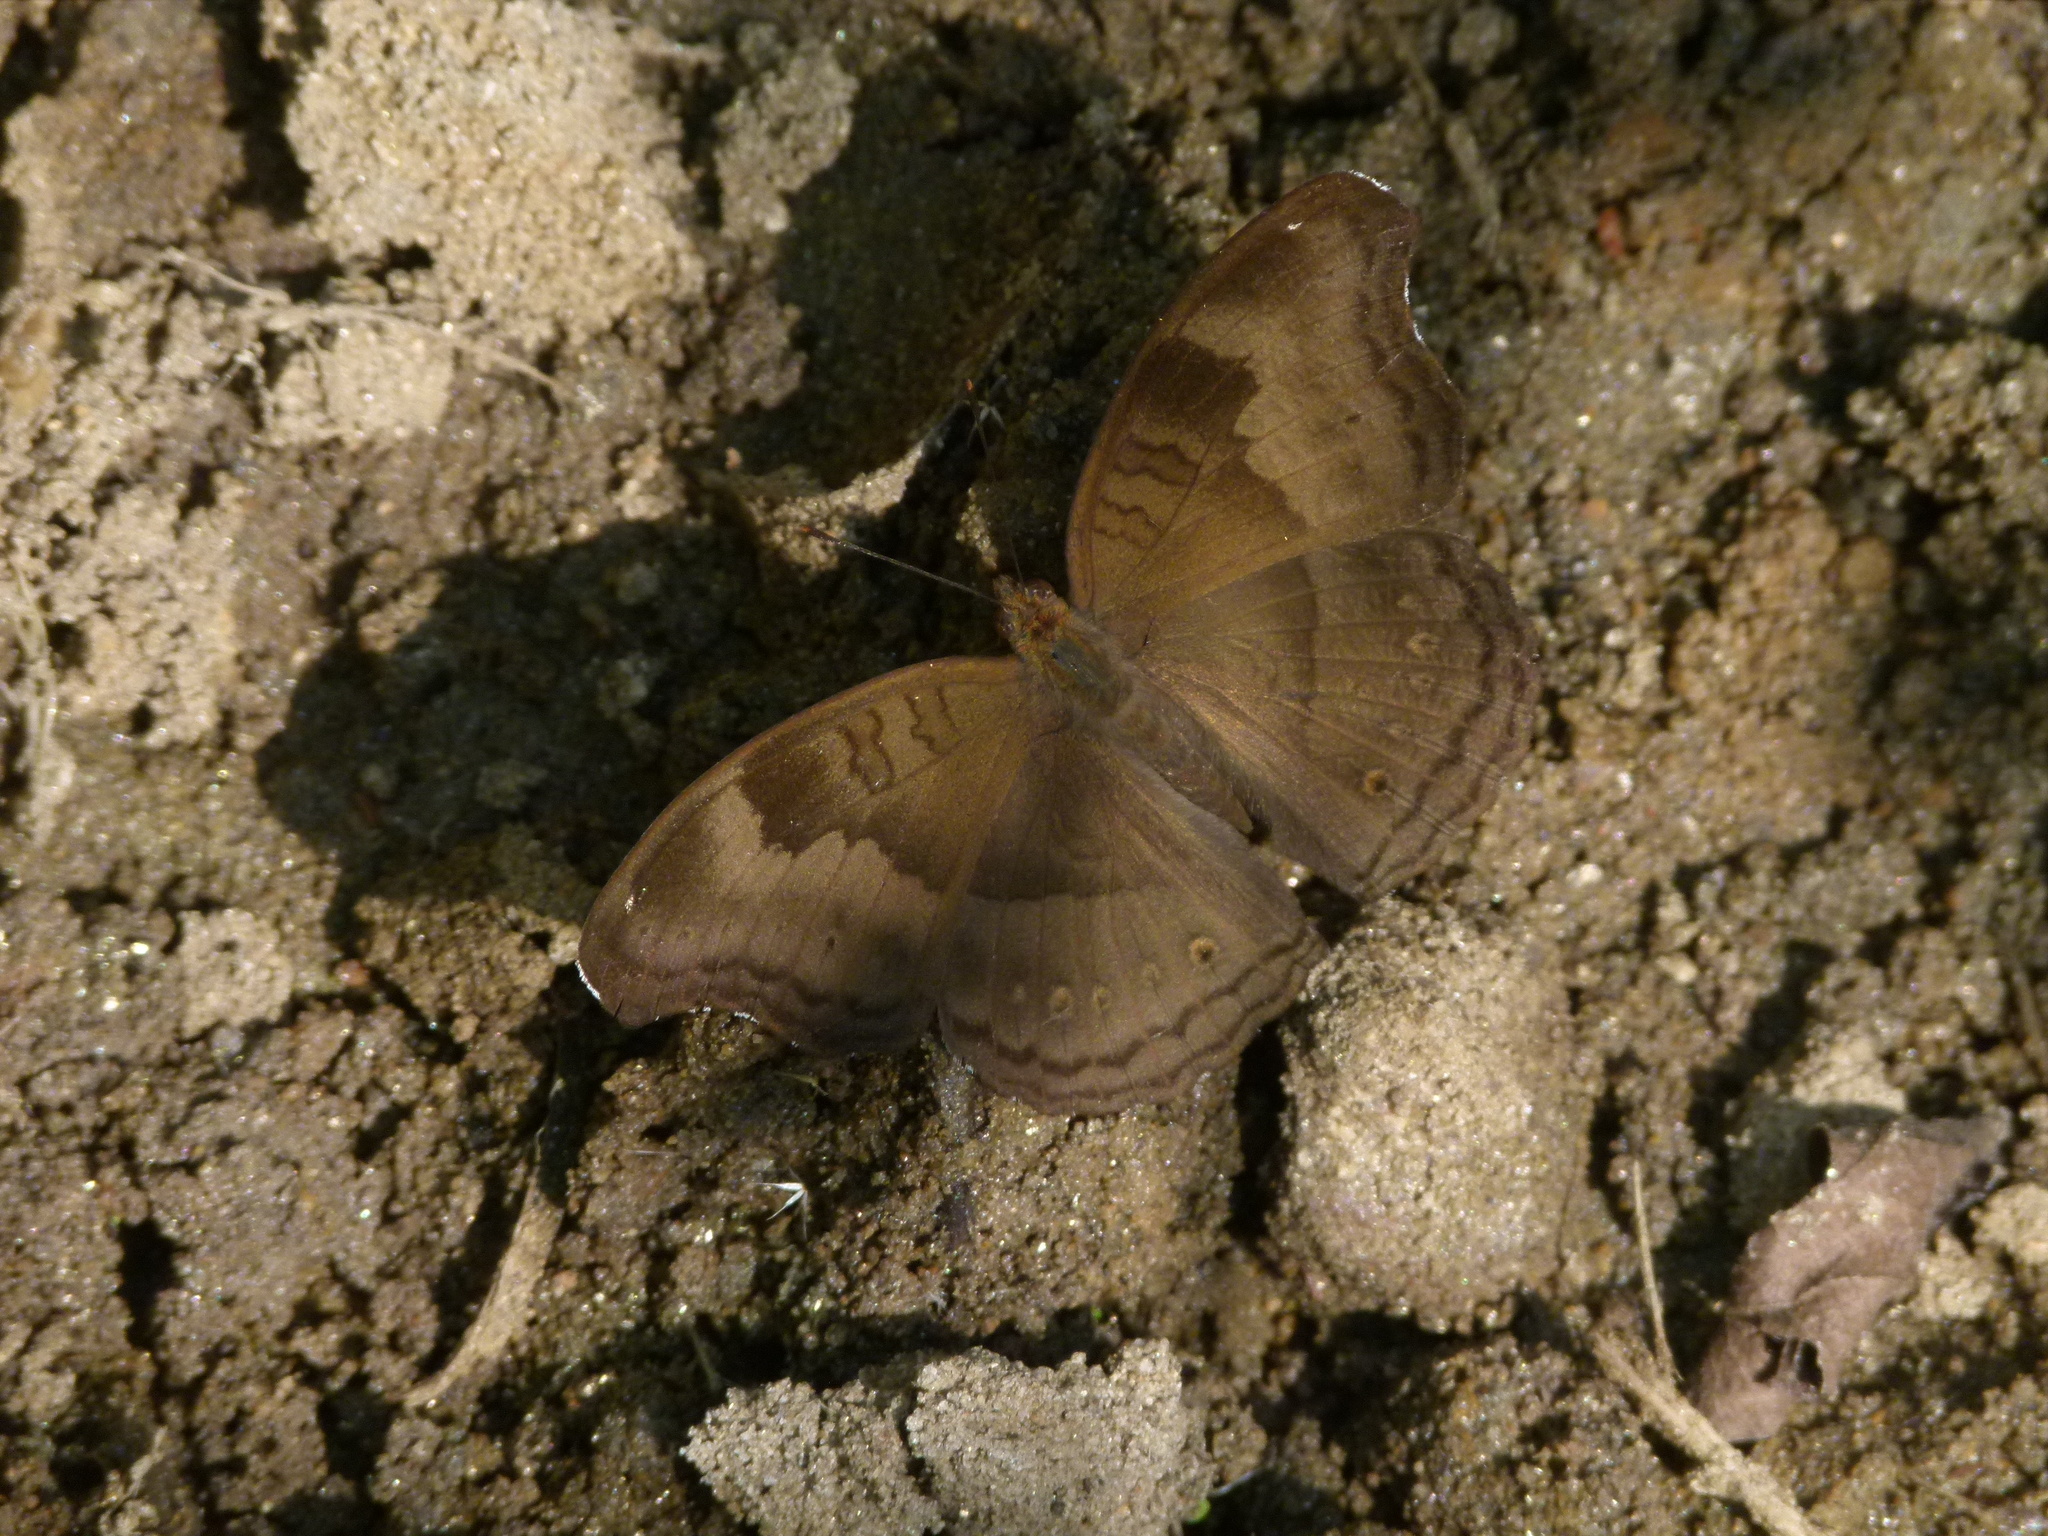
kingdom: Animalia
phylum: Arthropoda
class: Insecta
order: Lepidoptera
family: Nymphalidae
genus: Junonia
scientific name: Junonia iphita
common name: Chocolate pansy
